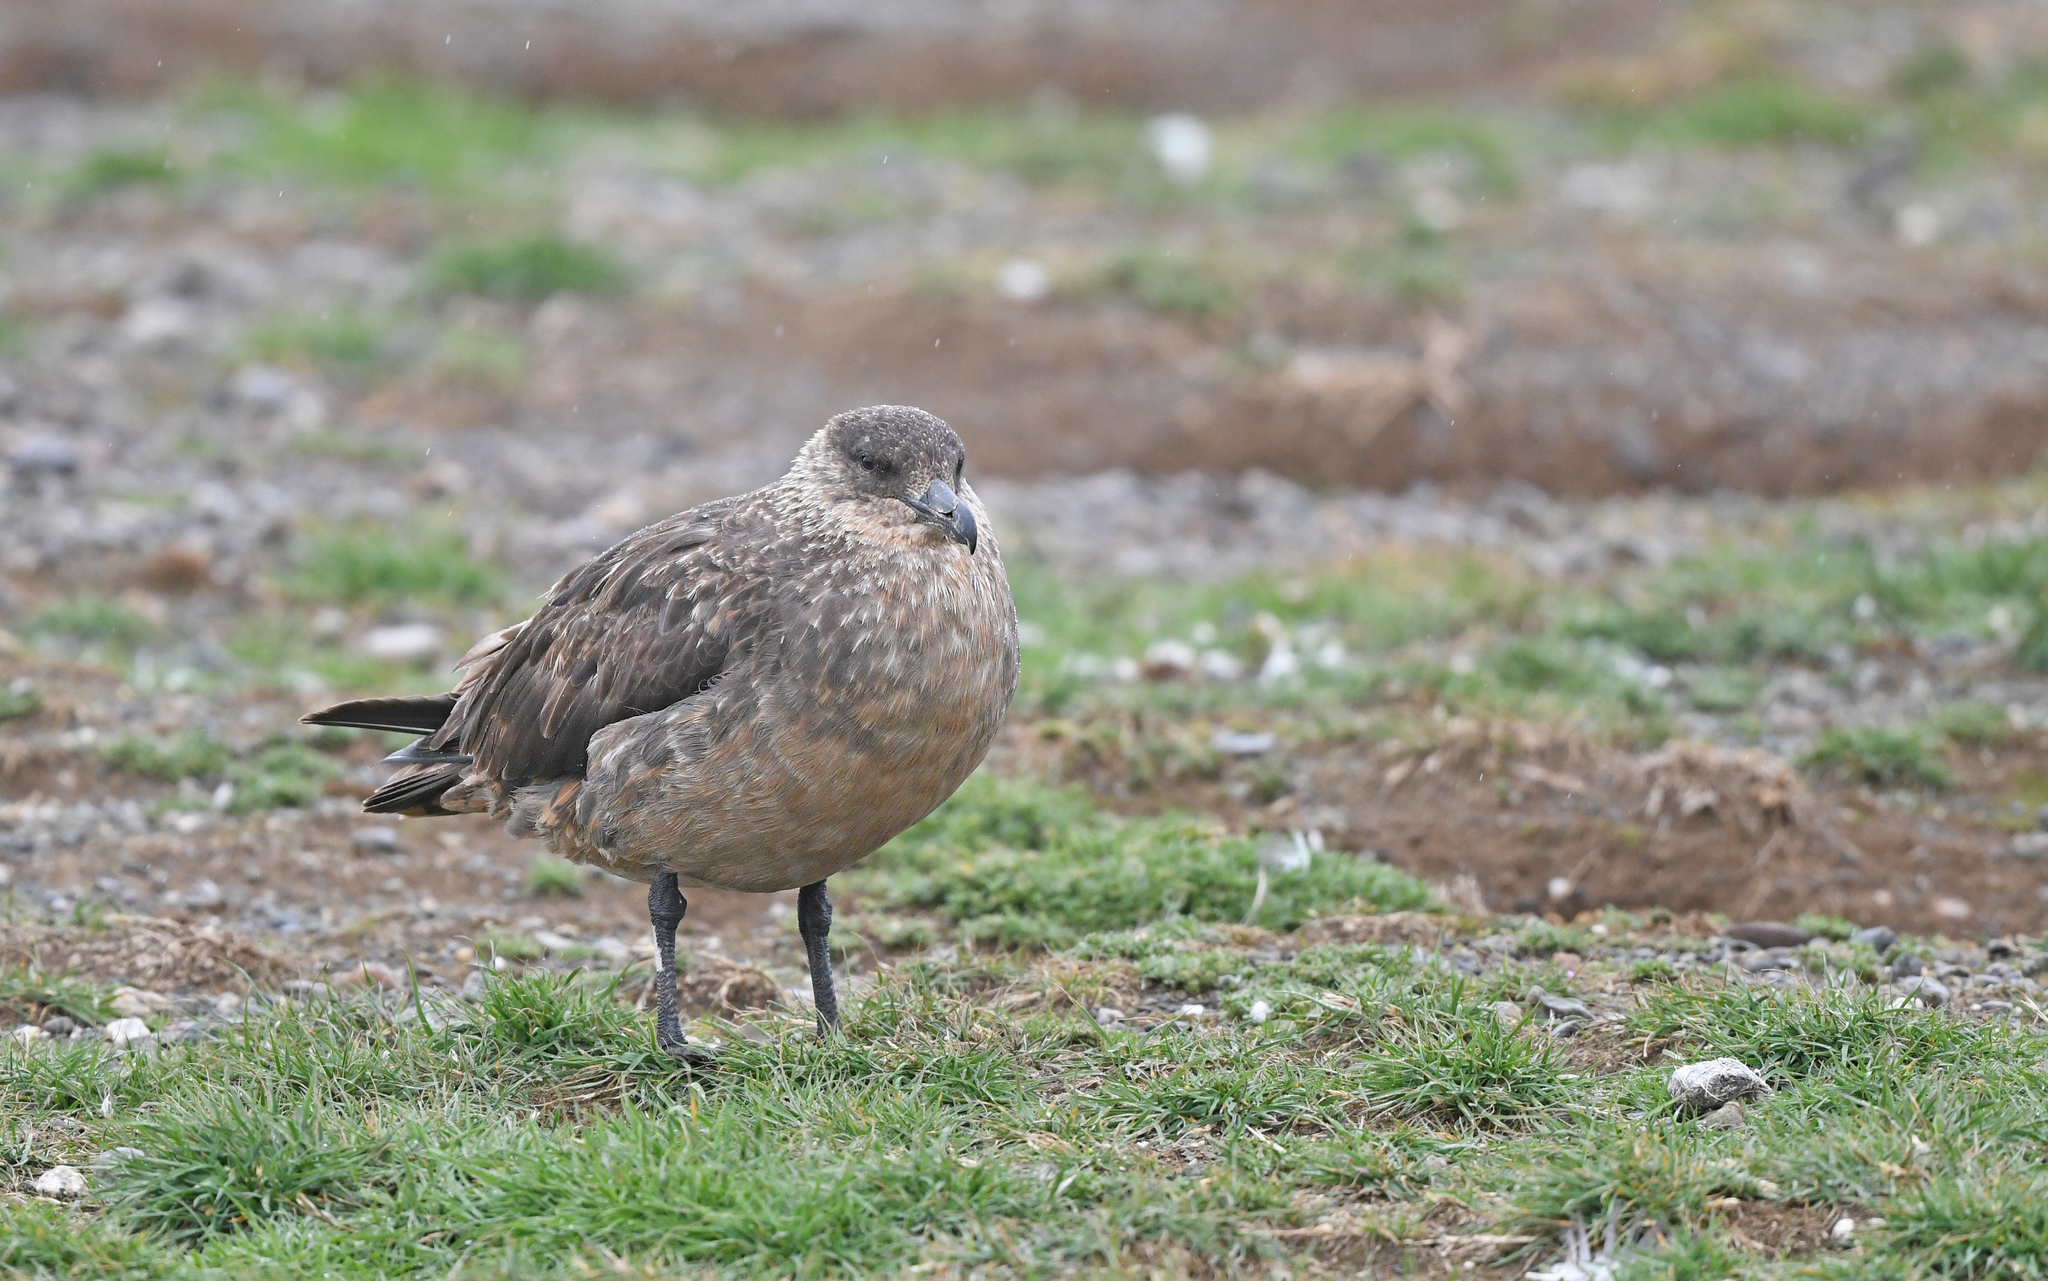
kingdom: Animalia
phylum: Chordata
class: Aves
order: Charadriiformes
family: Stercorariidae
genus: Stercorarius
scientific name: Stercorarius chilensis
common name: Chilean skua
